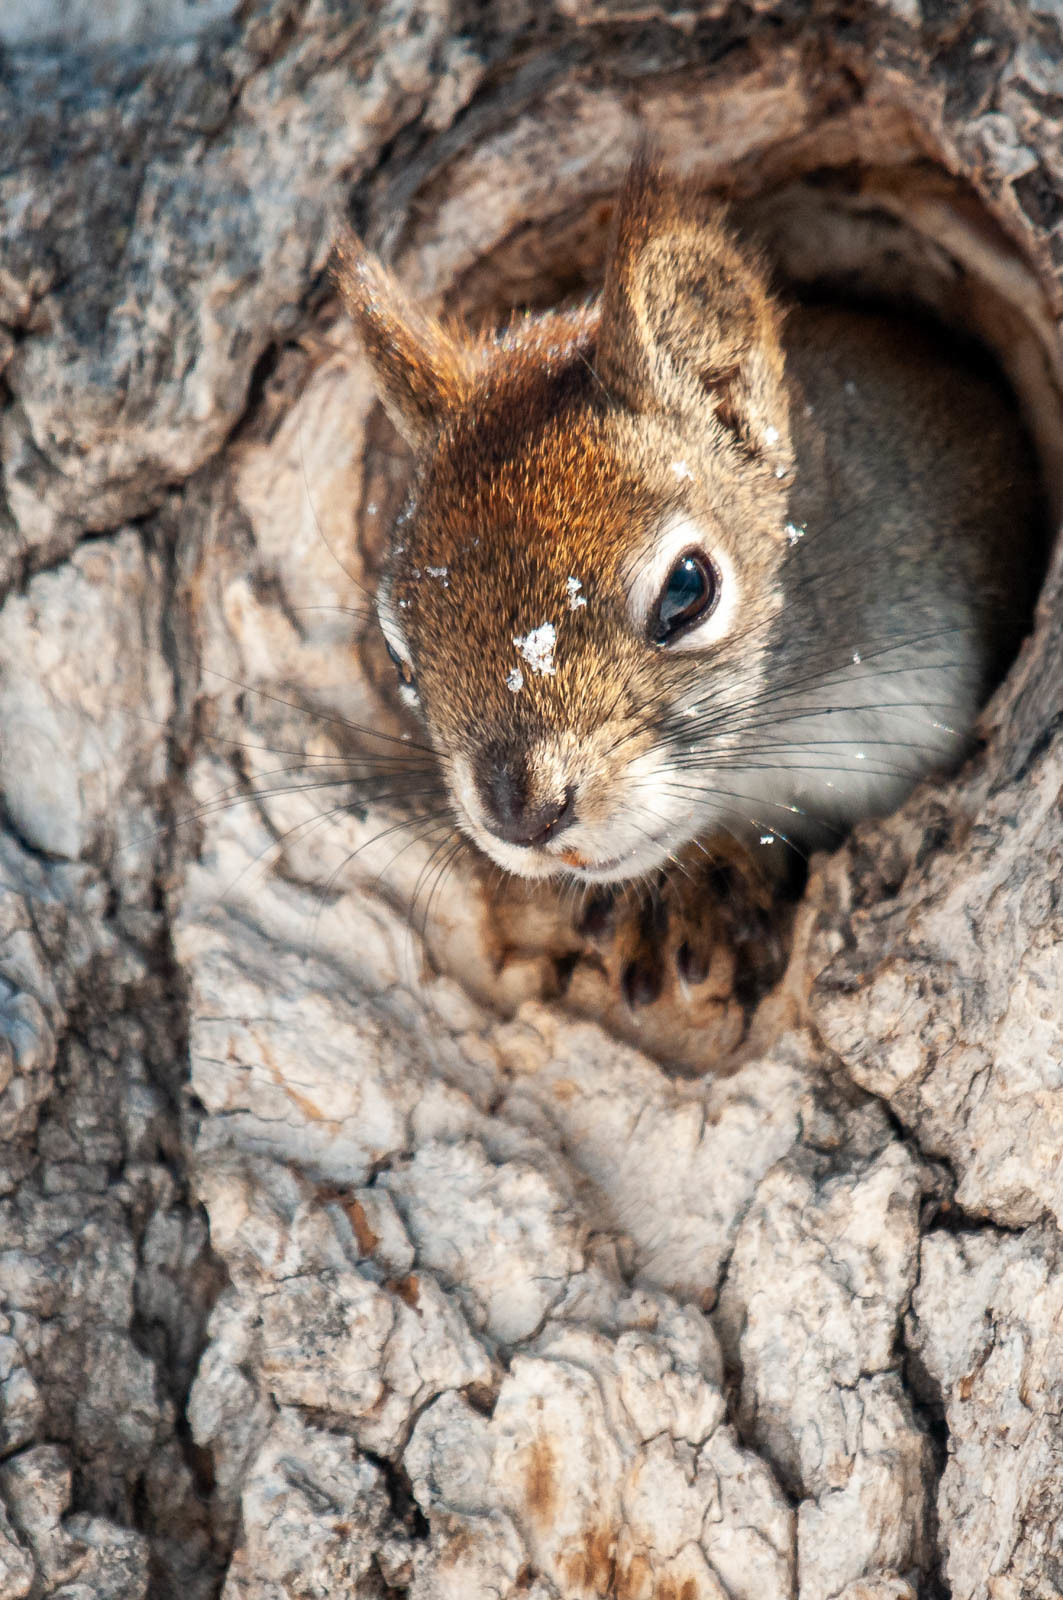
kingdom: Animalia
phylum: Chordata
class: Mammalia
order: Rodentia
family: Sciuridae
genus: Tamiasciurus
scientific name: Tamiasciurus hudsonicus
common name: Red squirrel
